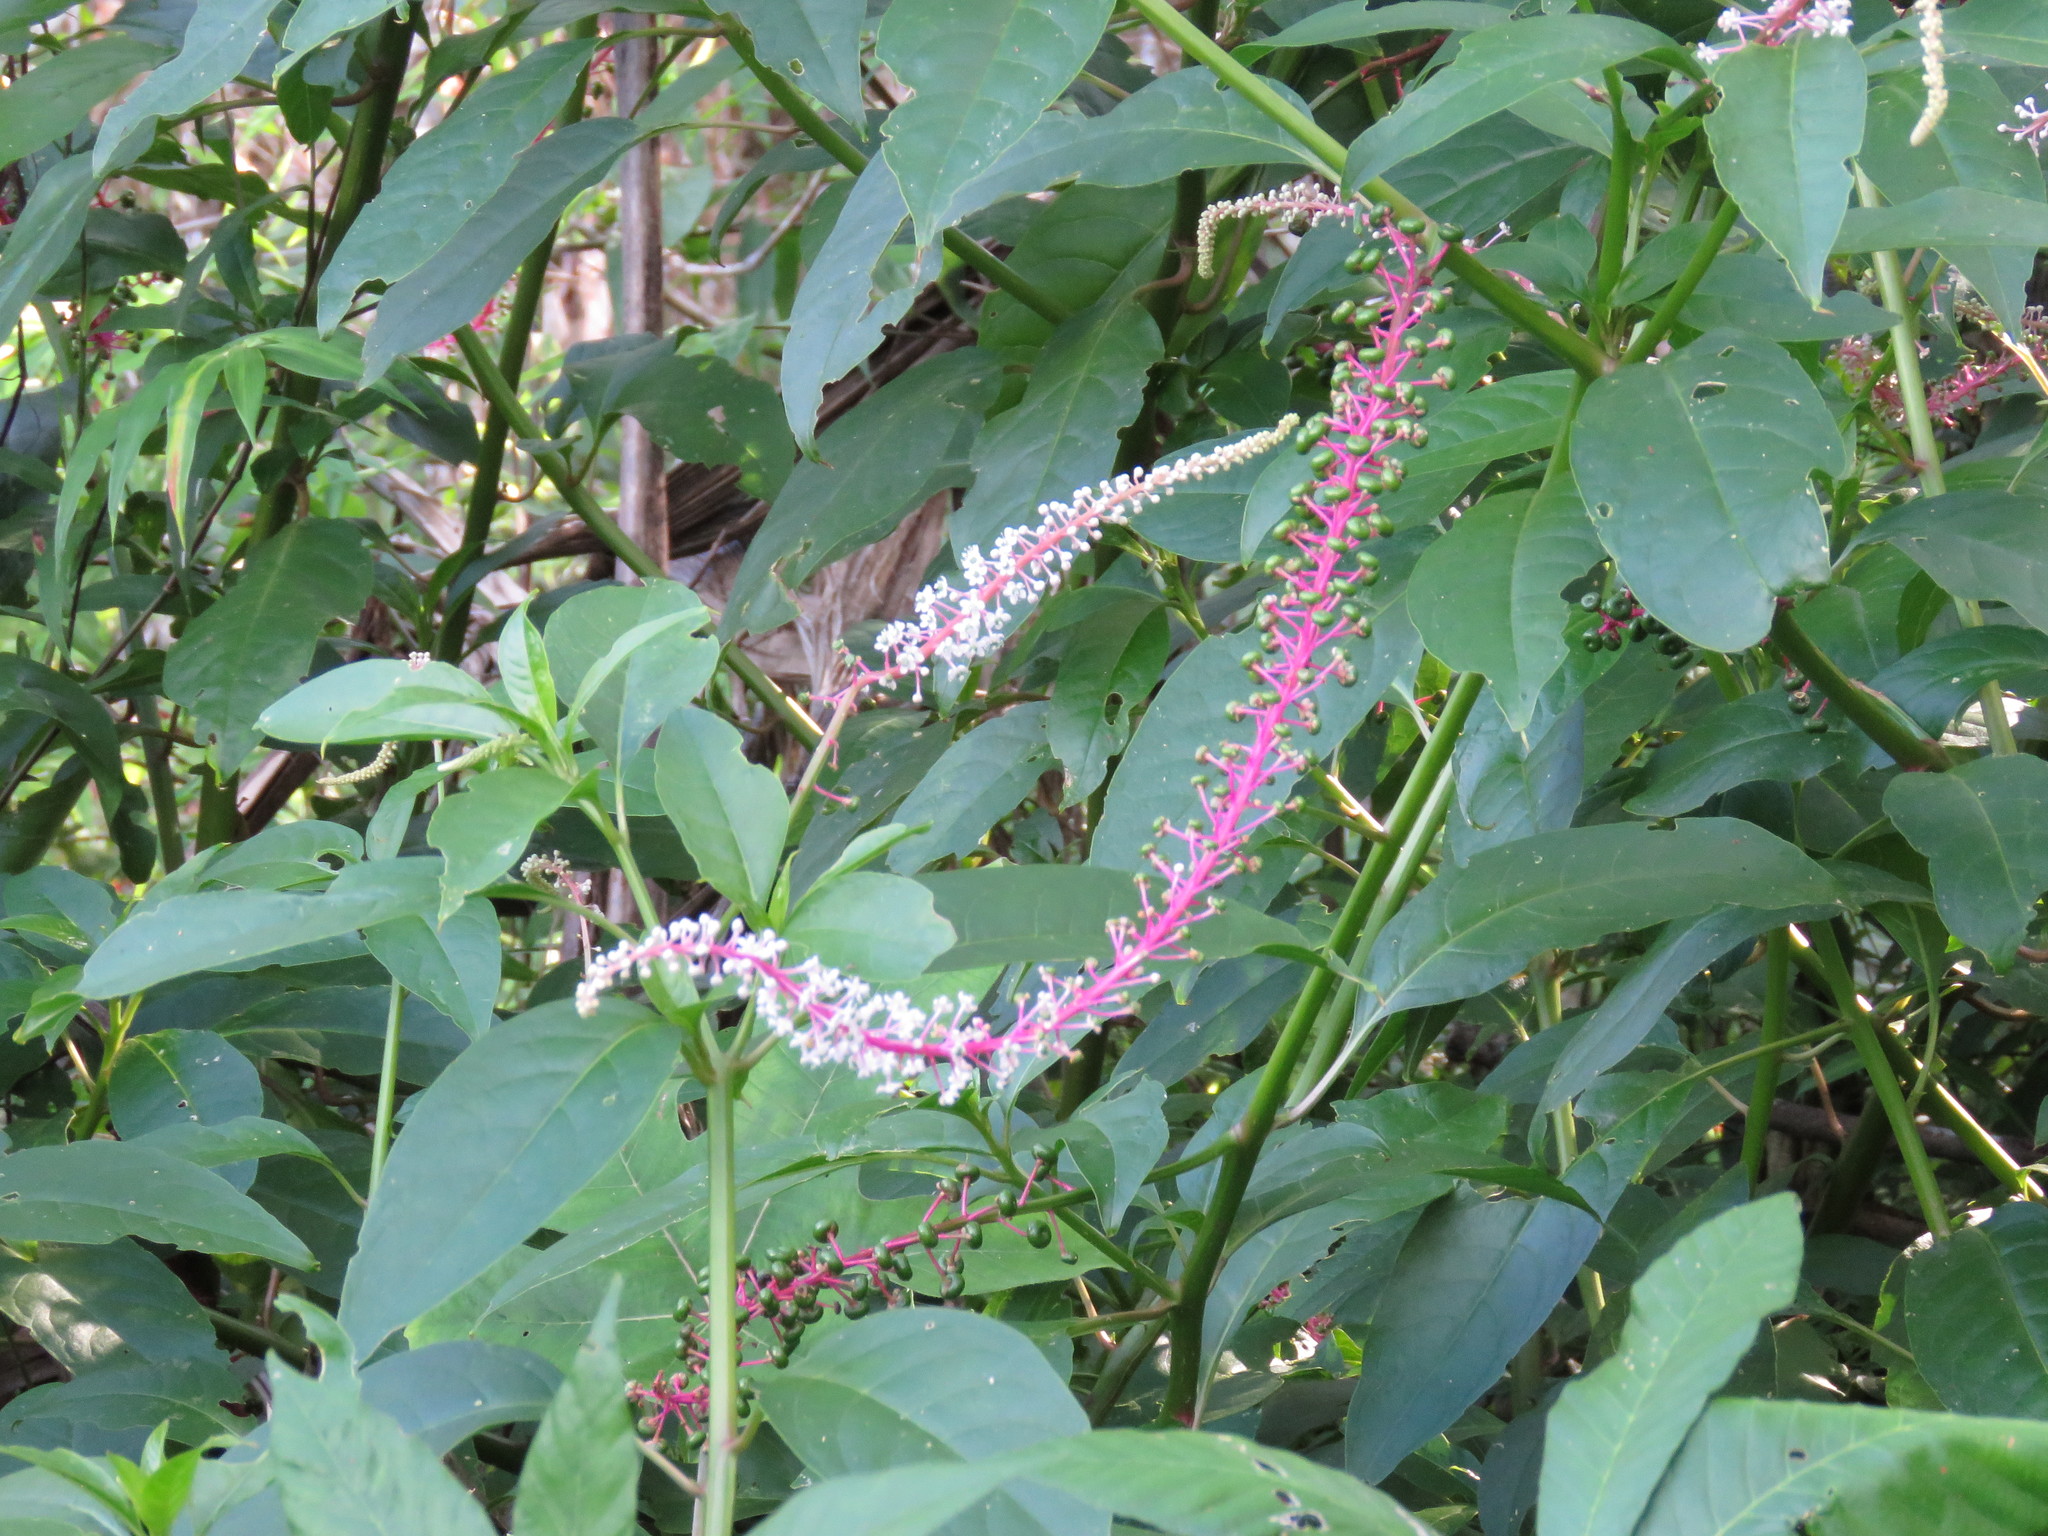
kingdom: Plantae
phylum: Tracheophyta
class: Magnoliopsida
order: Caryophyllales
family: Phytolaccaceae
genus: Phytolacca
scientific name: Phytolacca rivinoides
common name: Venezuelan pokeweed
